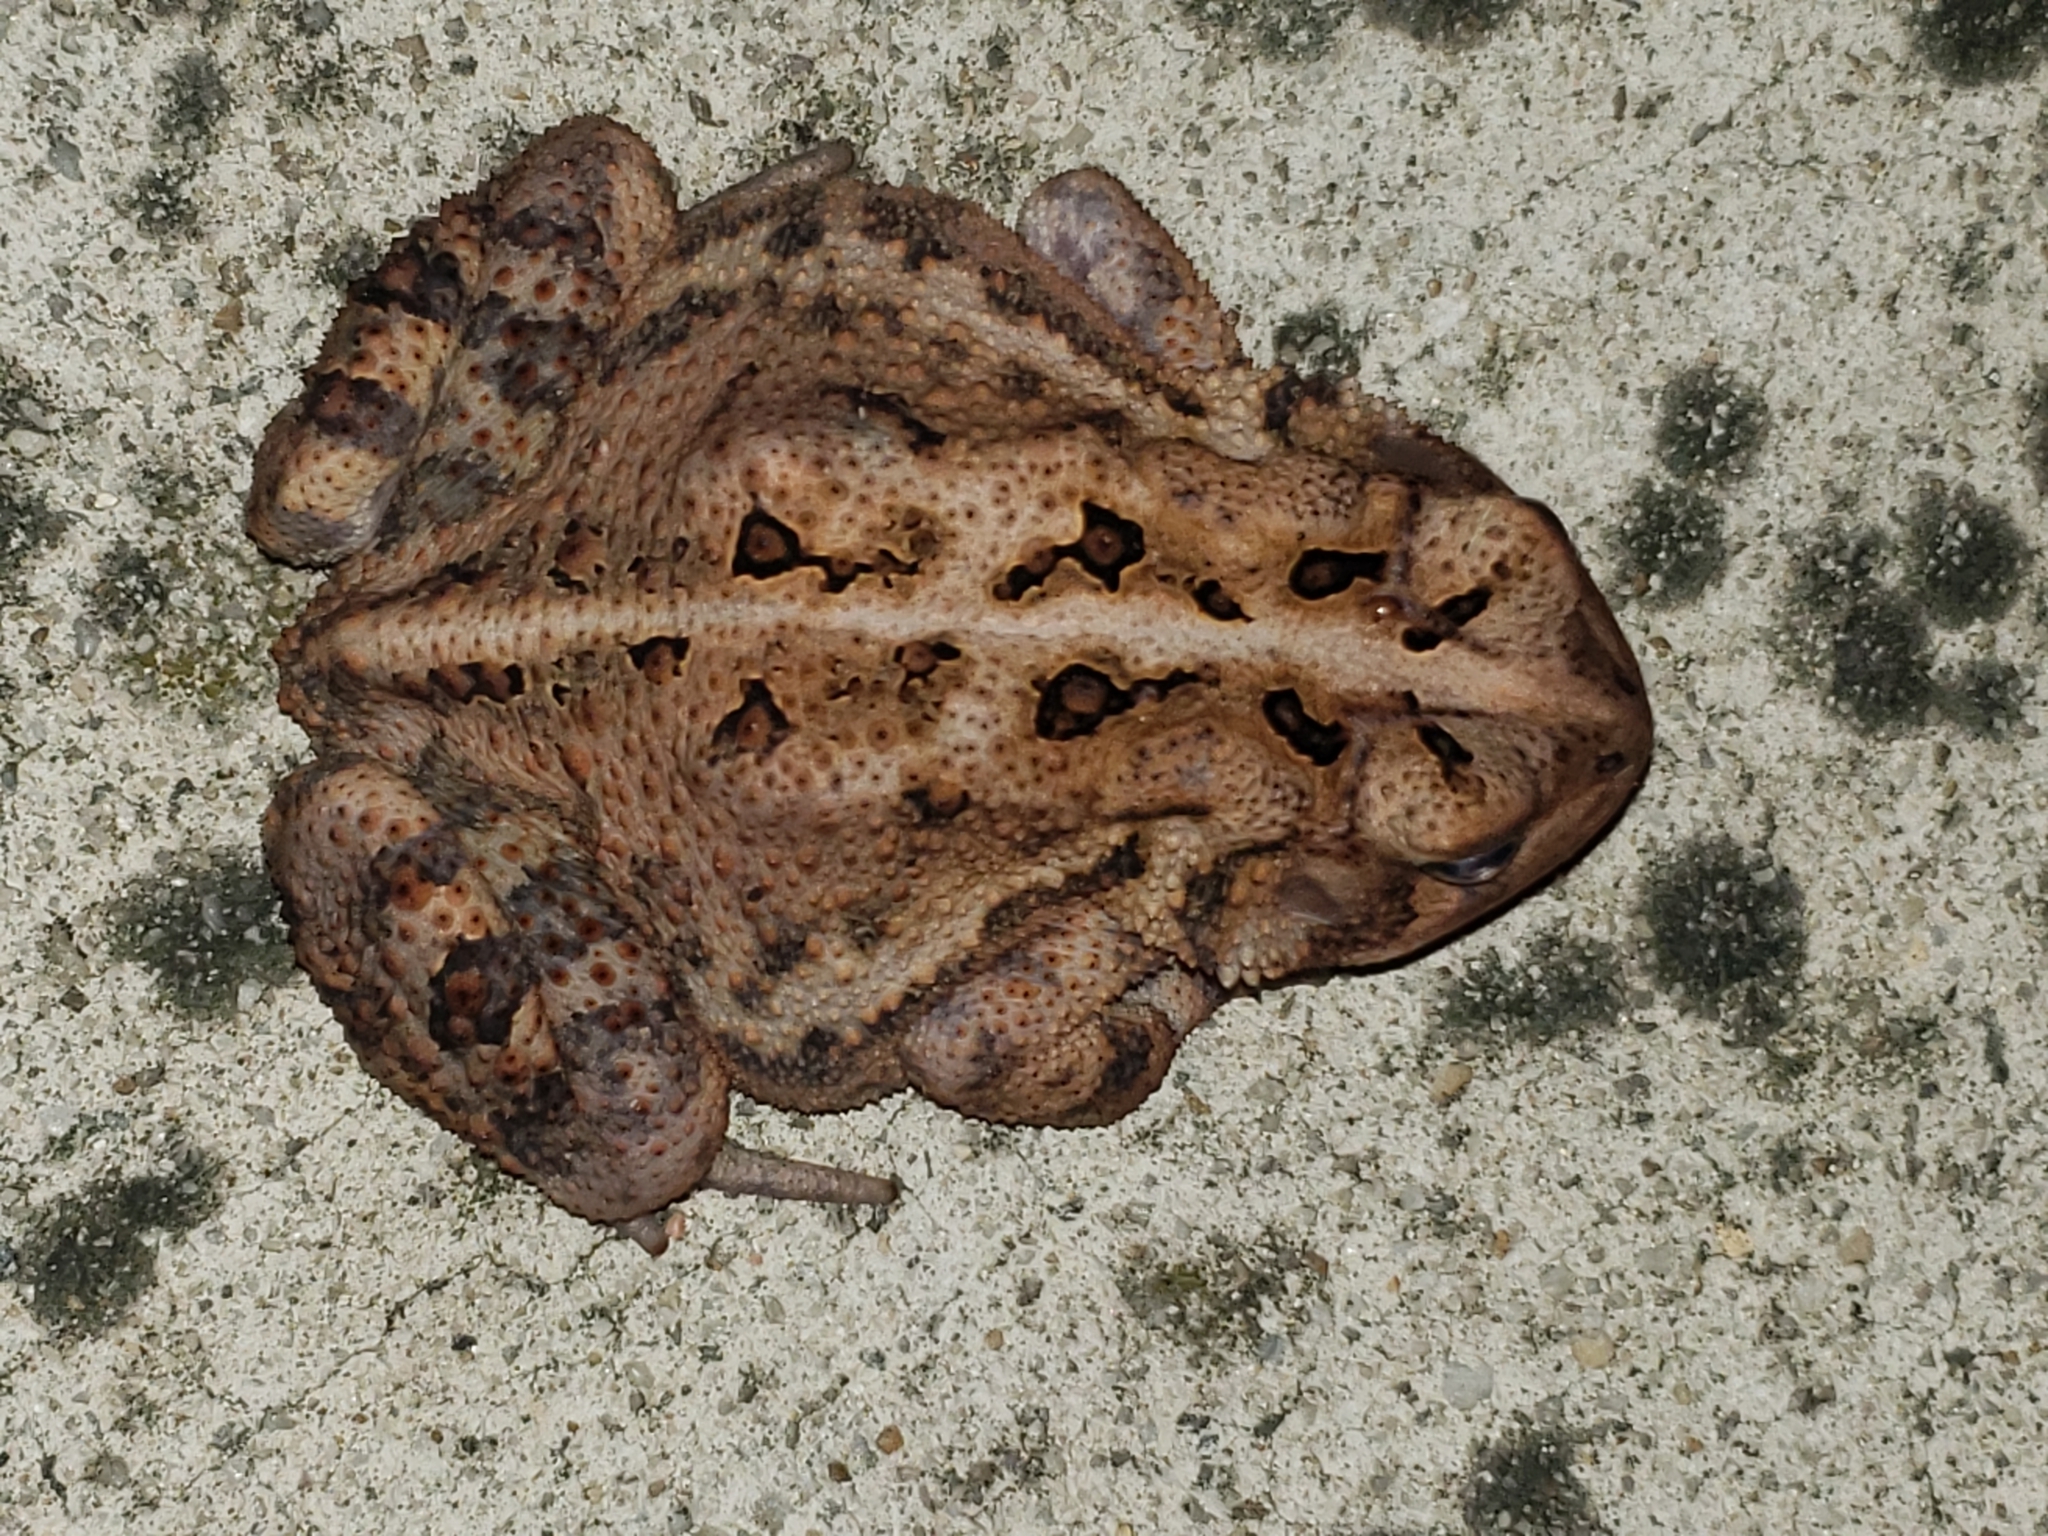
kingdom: Animalia
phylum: Chordata
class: Amphibia
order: Anura
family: Bufonidae
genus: Anaxyrus
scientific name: Anaxyrus americanus
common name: American toad
